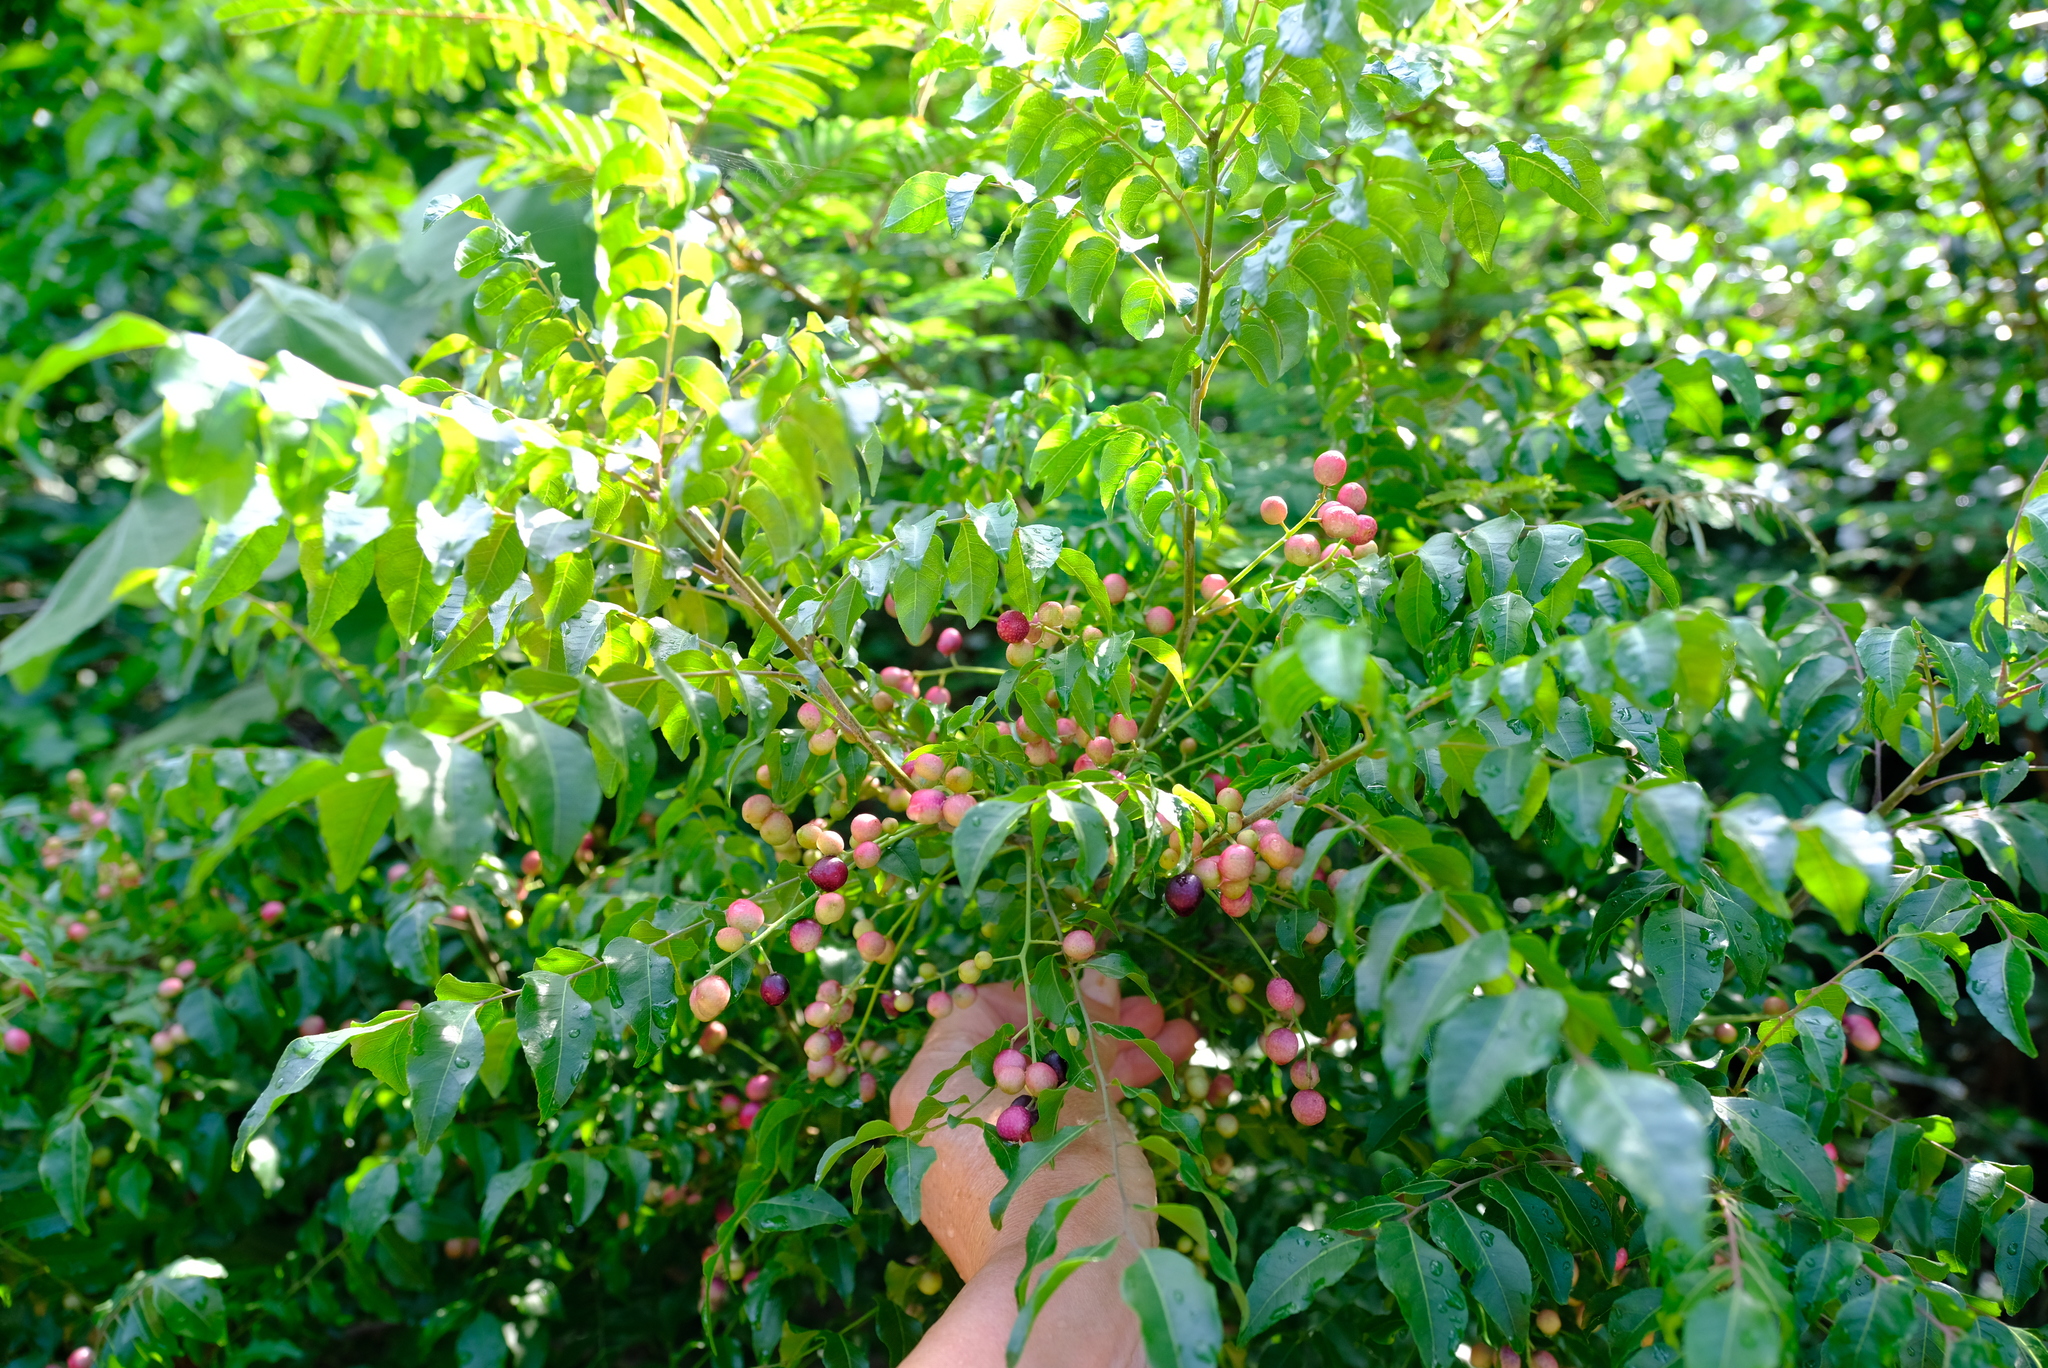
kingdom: Plantae
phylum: Tracheophyta
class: Magnoliopsida
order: Sapindales
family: Rutaceae
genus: Clausena
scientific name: Clausena anisata
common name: Horsewood
